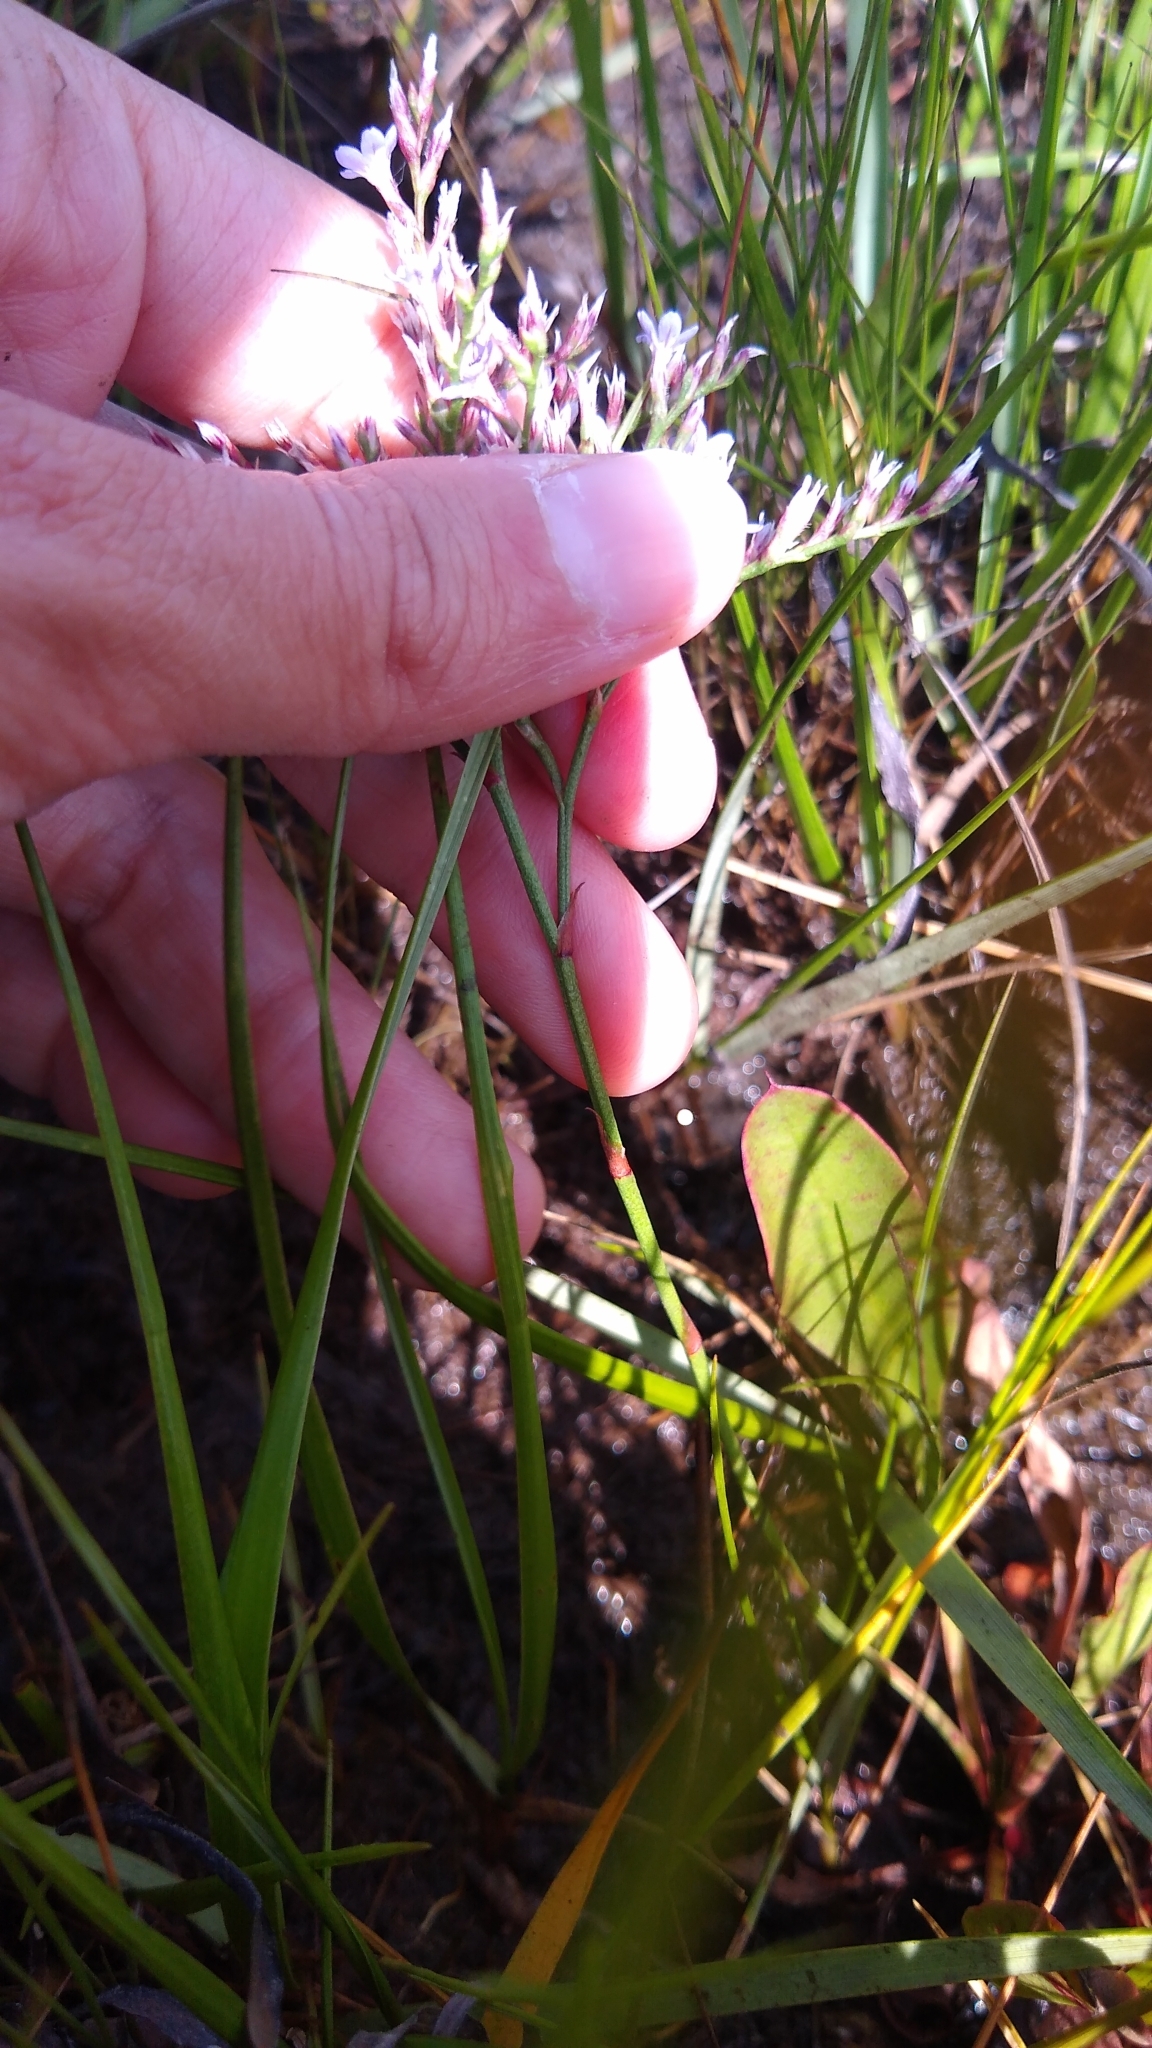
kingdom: Plantae
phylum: Tracheophyta
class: Magnoliopsida
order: Caryophyllales
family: Plumbaginaceae
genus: Limonium
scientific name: Limonium carolinianum
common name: Carolina sea lavender
